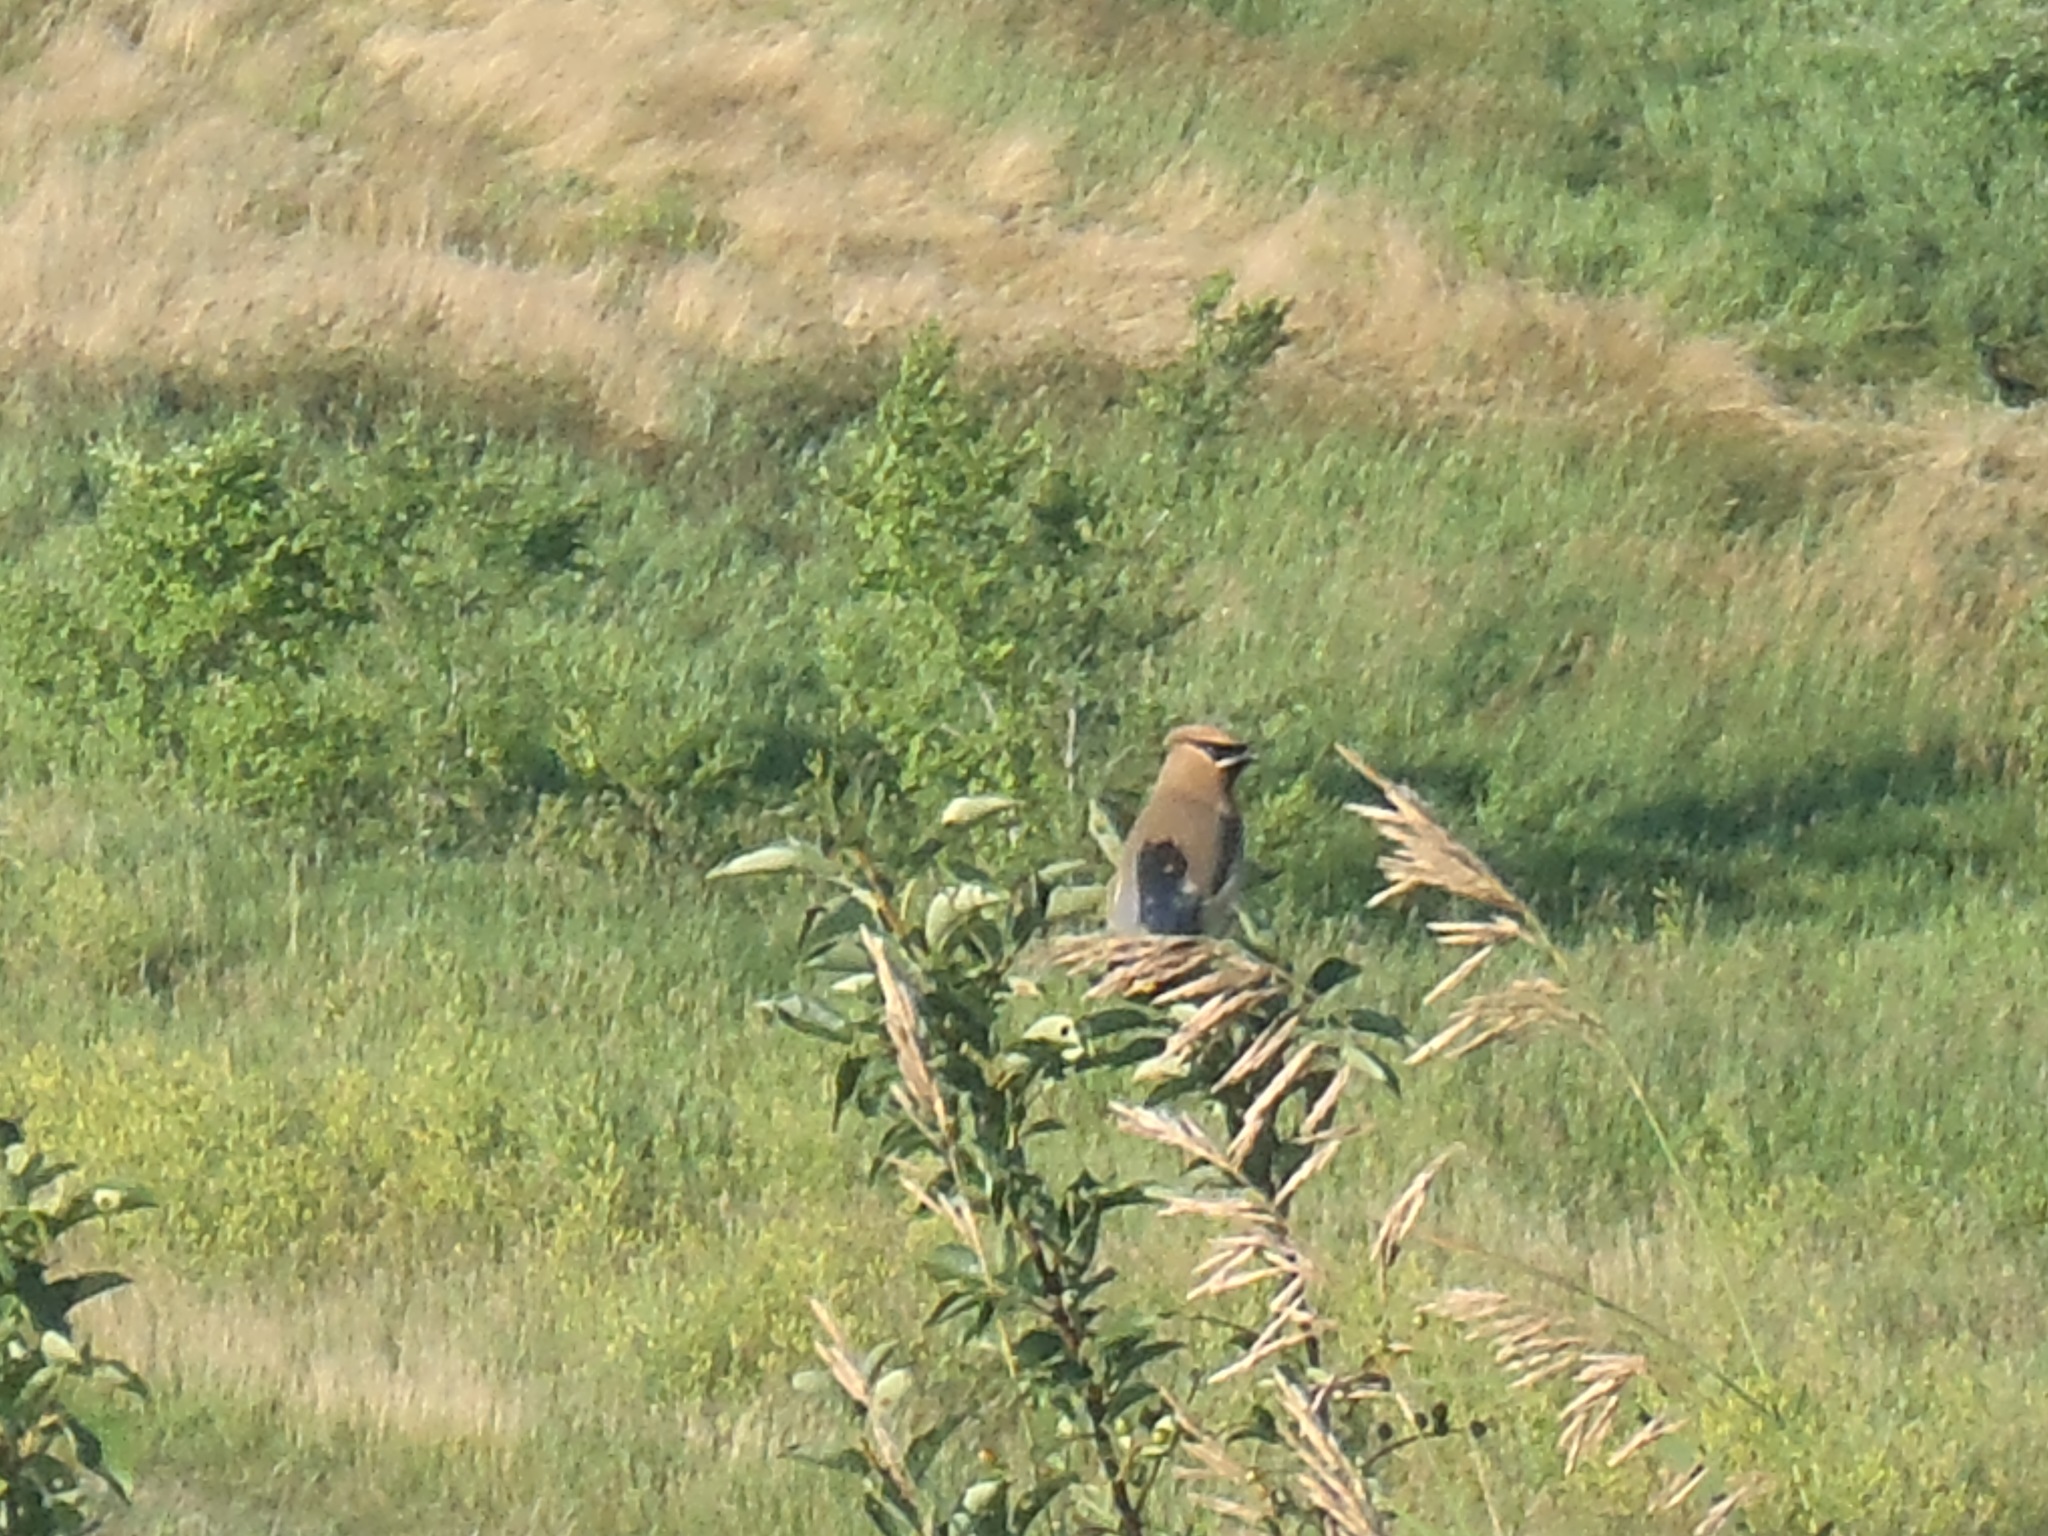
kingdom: Animalia
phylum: Chordata
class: Aves
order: Passeriformes
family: Bombycillidae
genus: Bombycilla
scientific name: Bombycilla cedrorum
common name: Cedar waxwing
